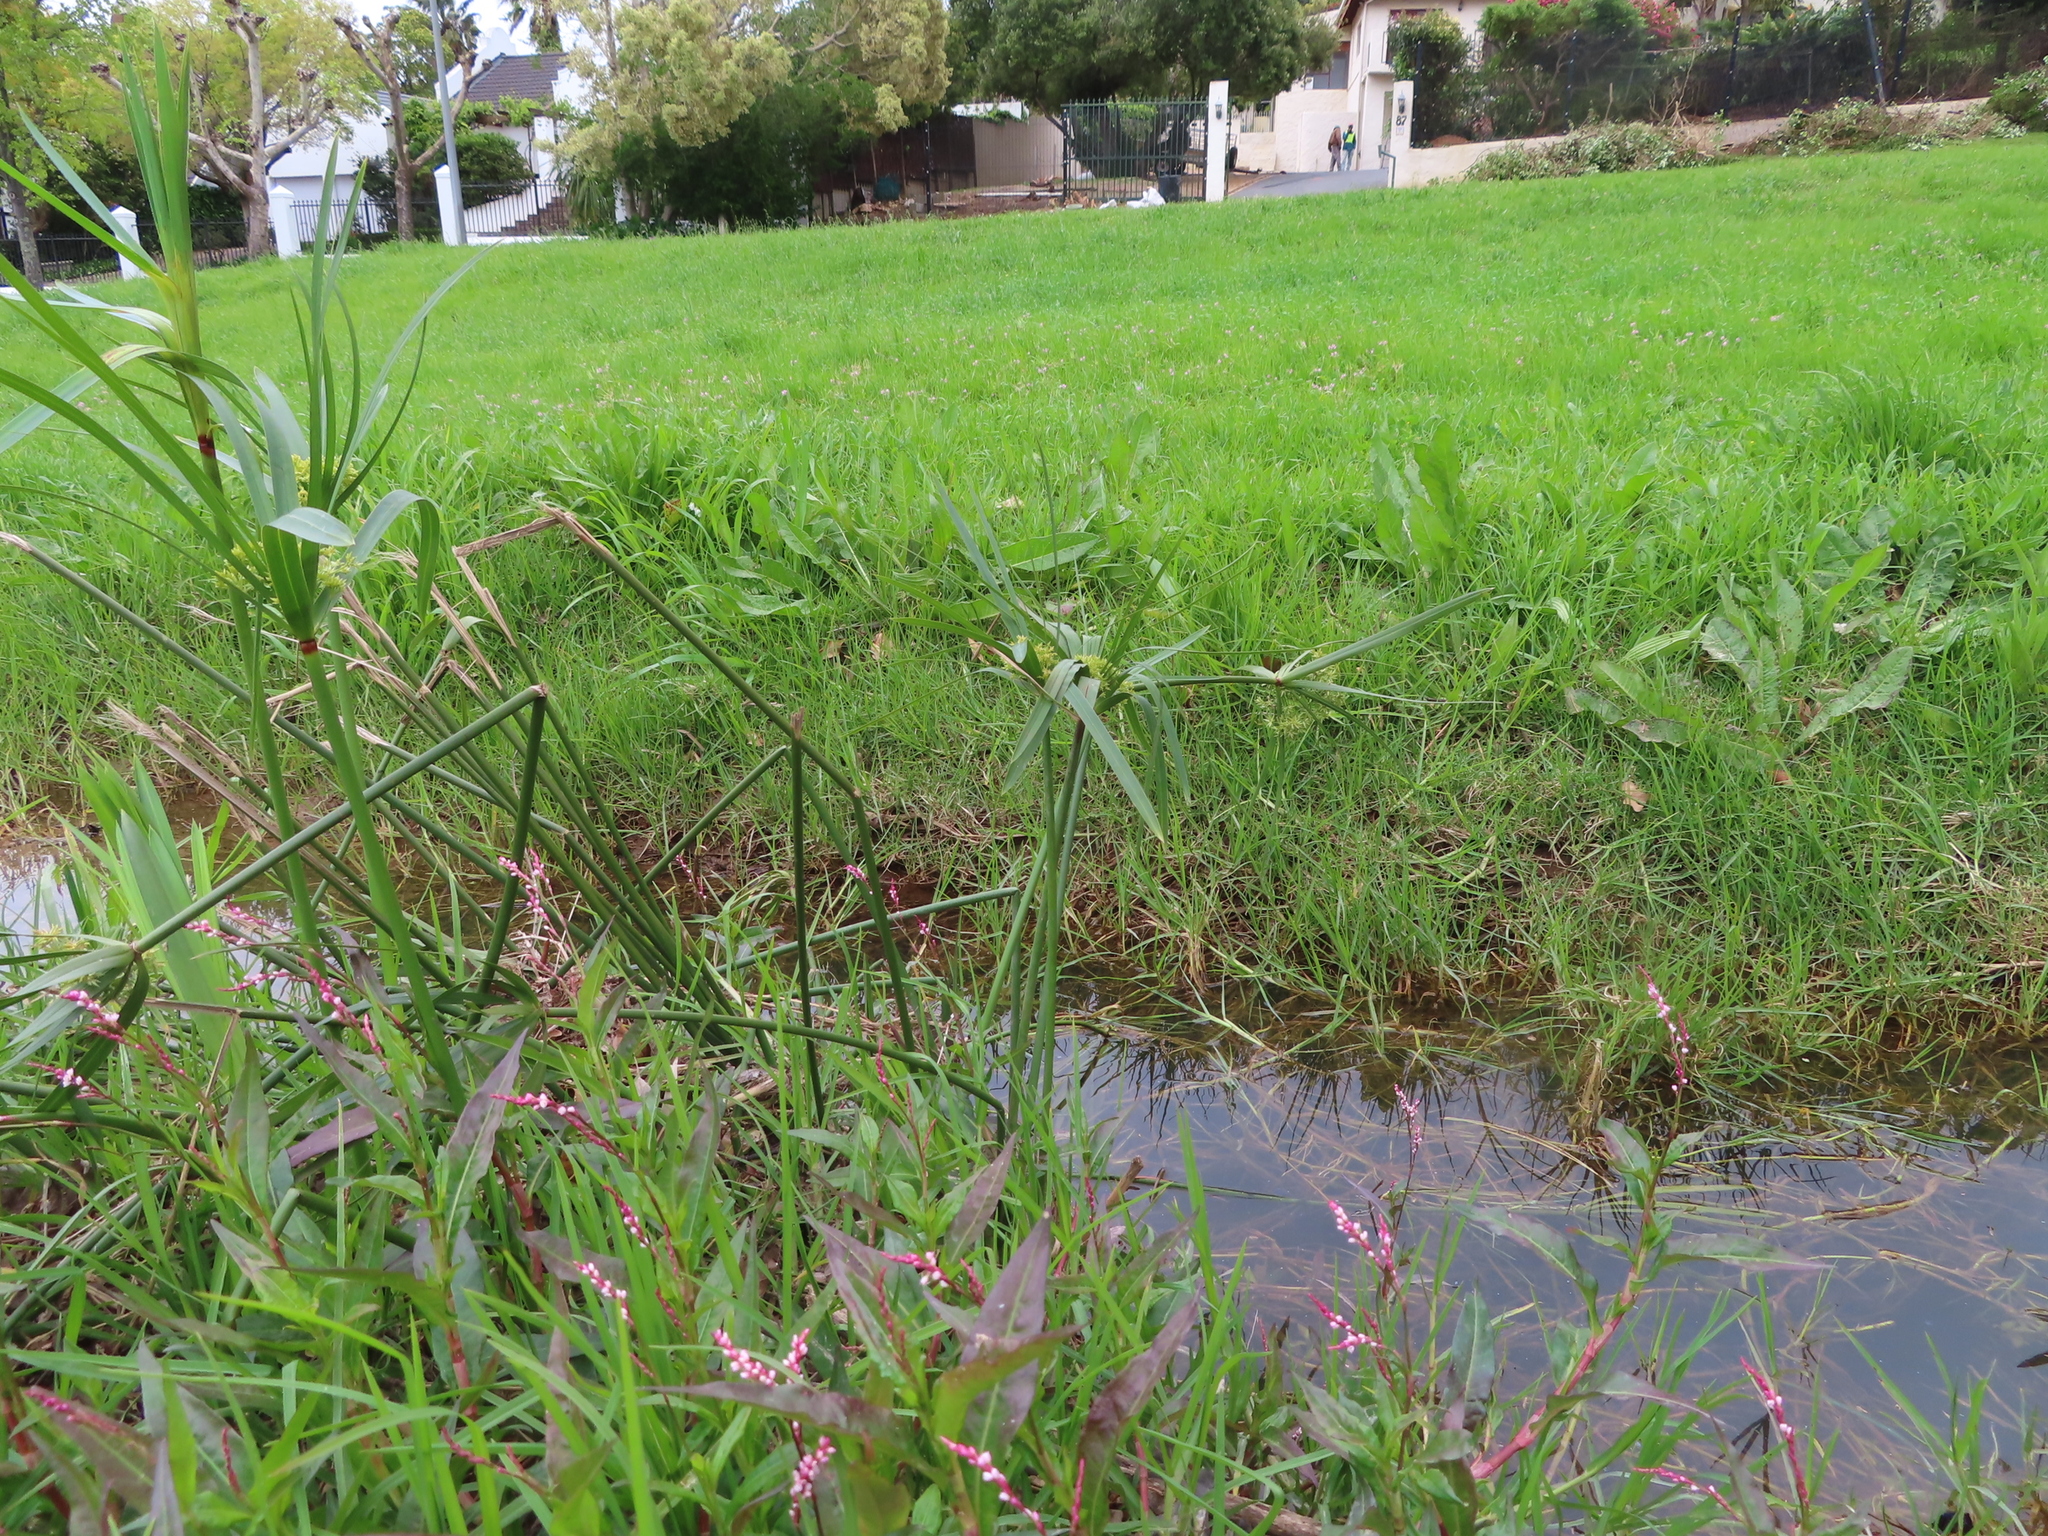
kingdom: Plantae
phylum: Tracheophyta
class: Liliopsida
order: Poales
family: Cyperaceae
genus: Cyperus
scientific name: Cyperus textilis
